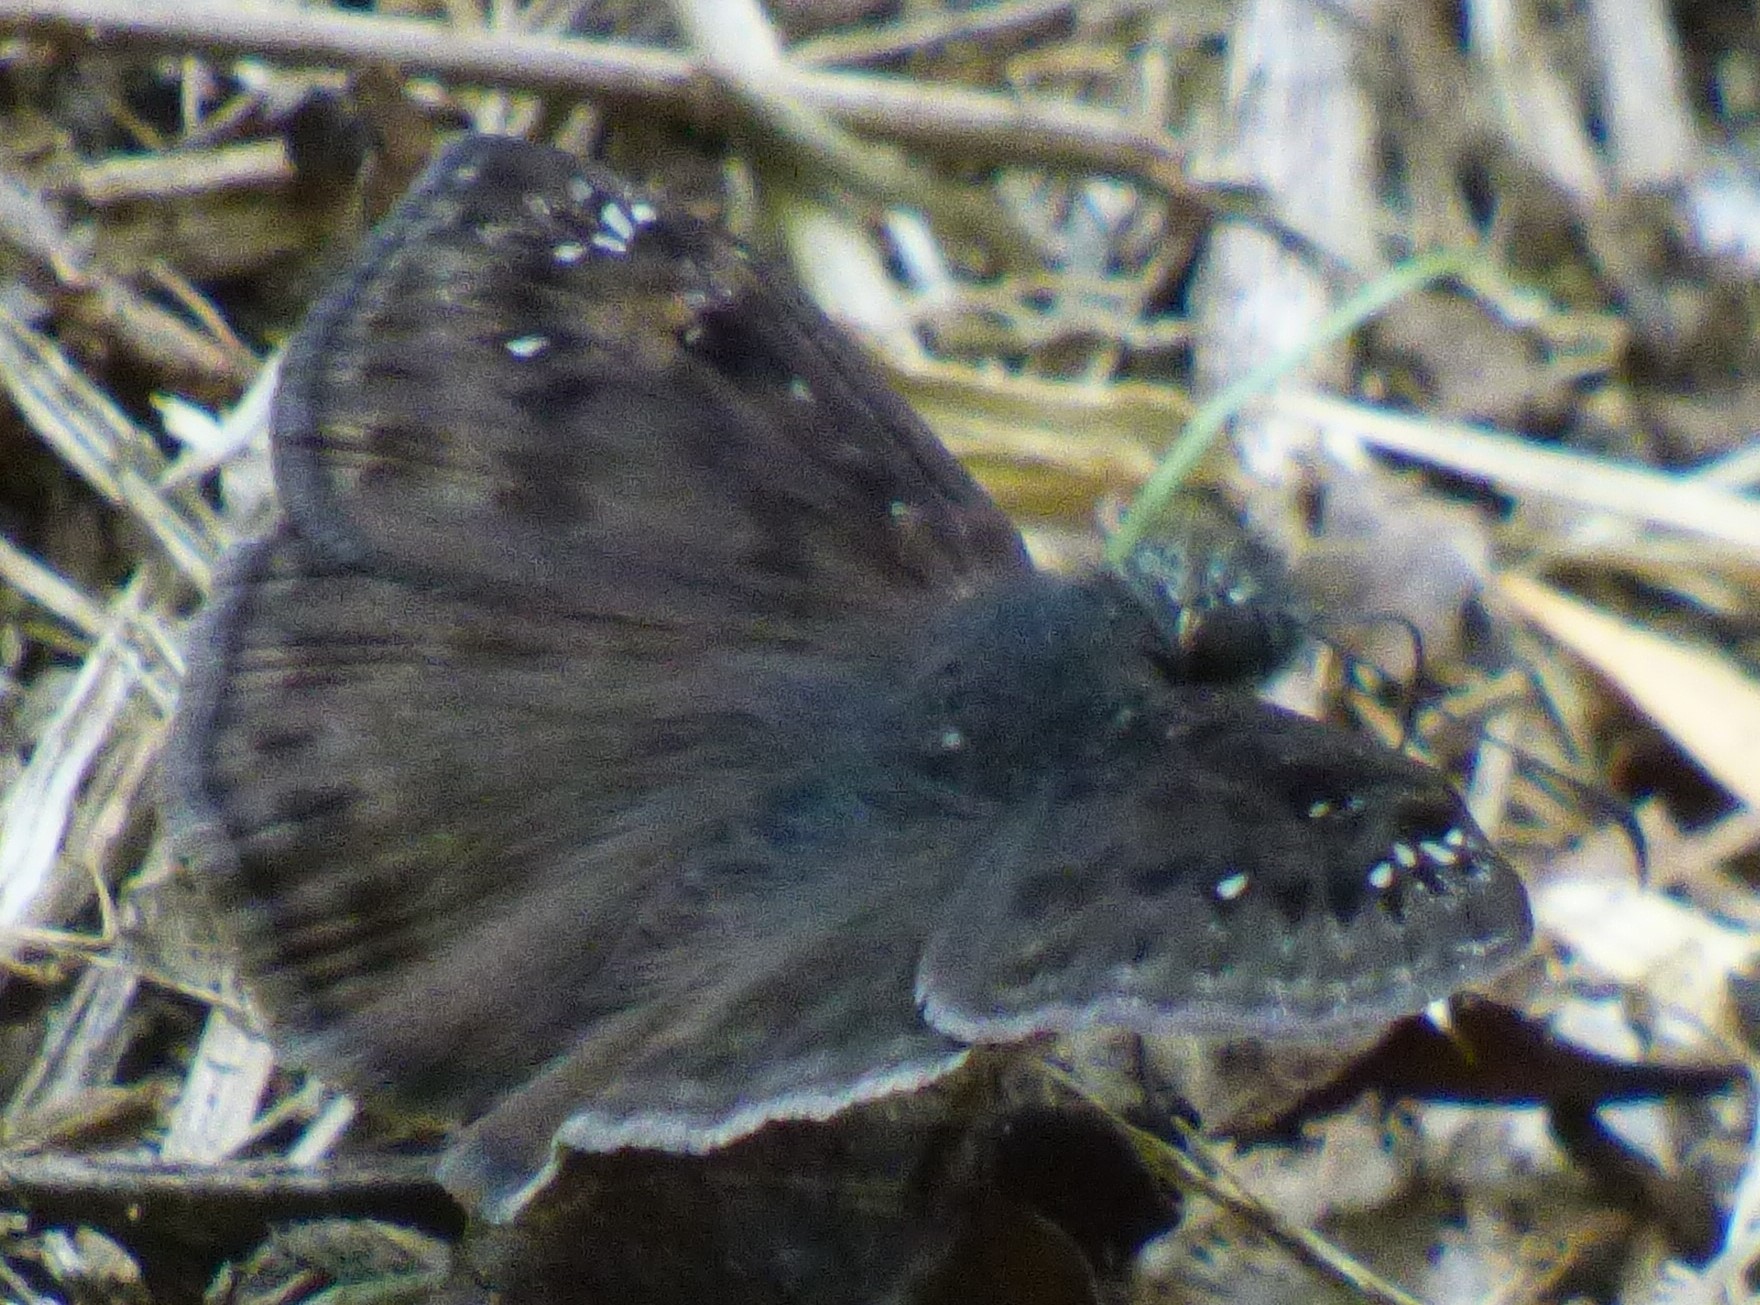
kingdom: Animalia
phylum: Arthropoda
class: Insecta
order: Lepidoptera
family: Hesperiidae
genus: Erynnis
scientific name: Erynnis horatius
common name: Horace's duskywing
